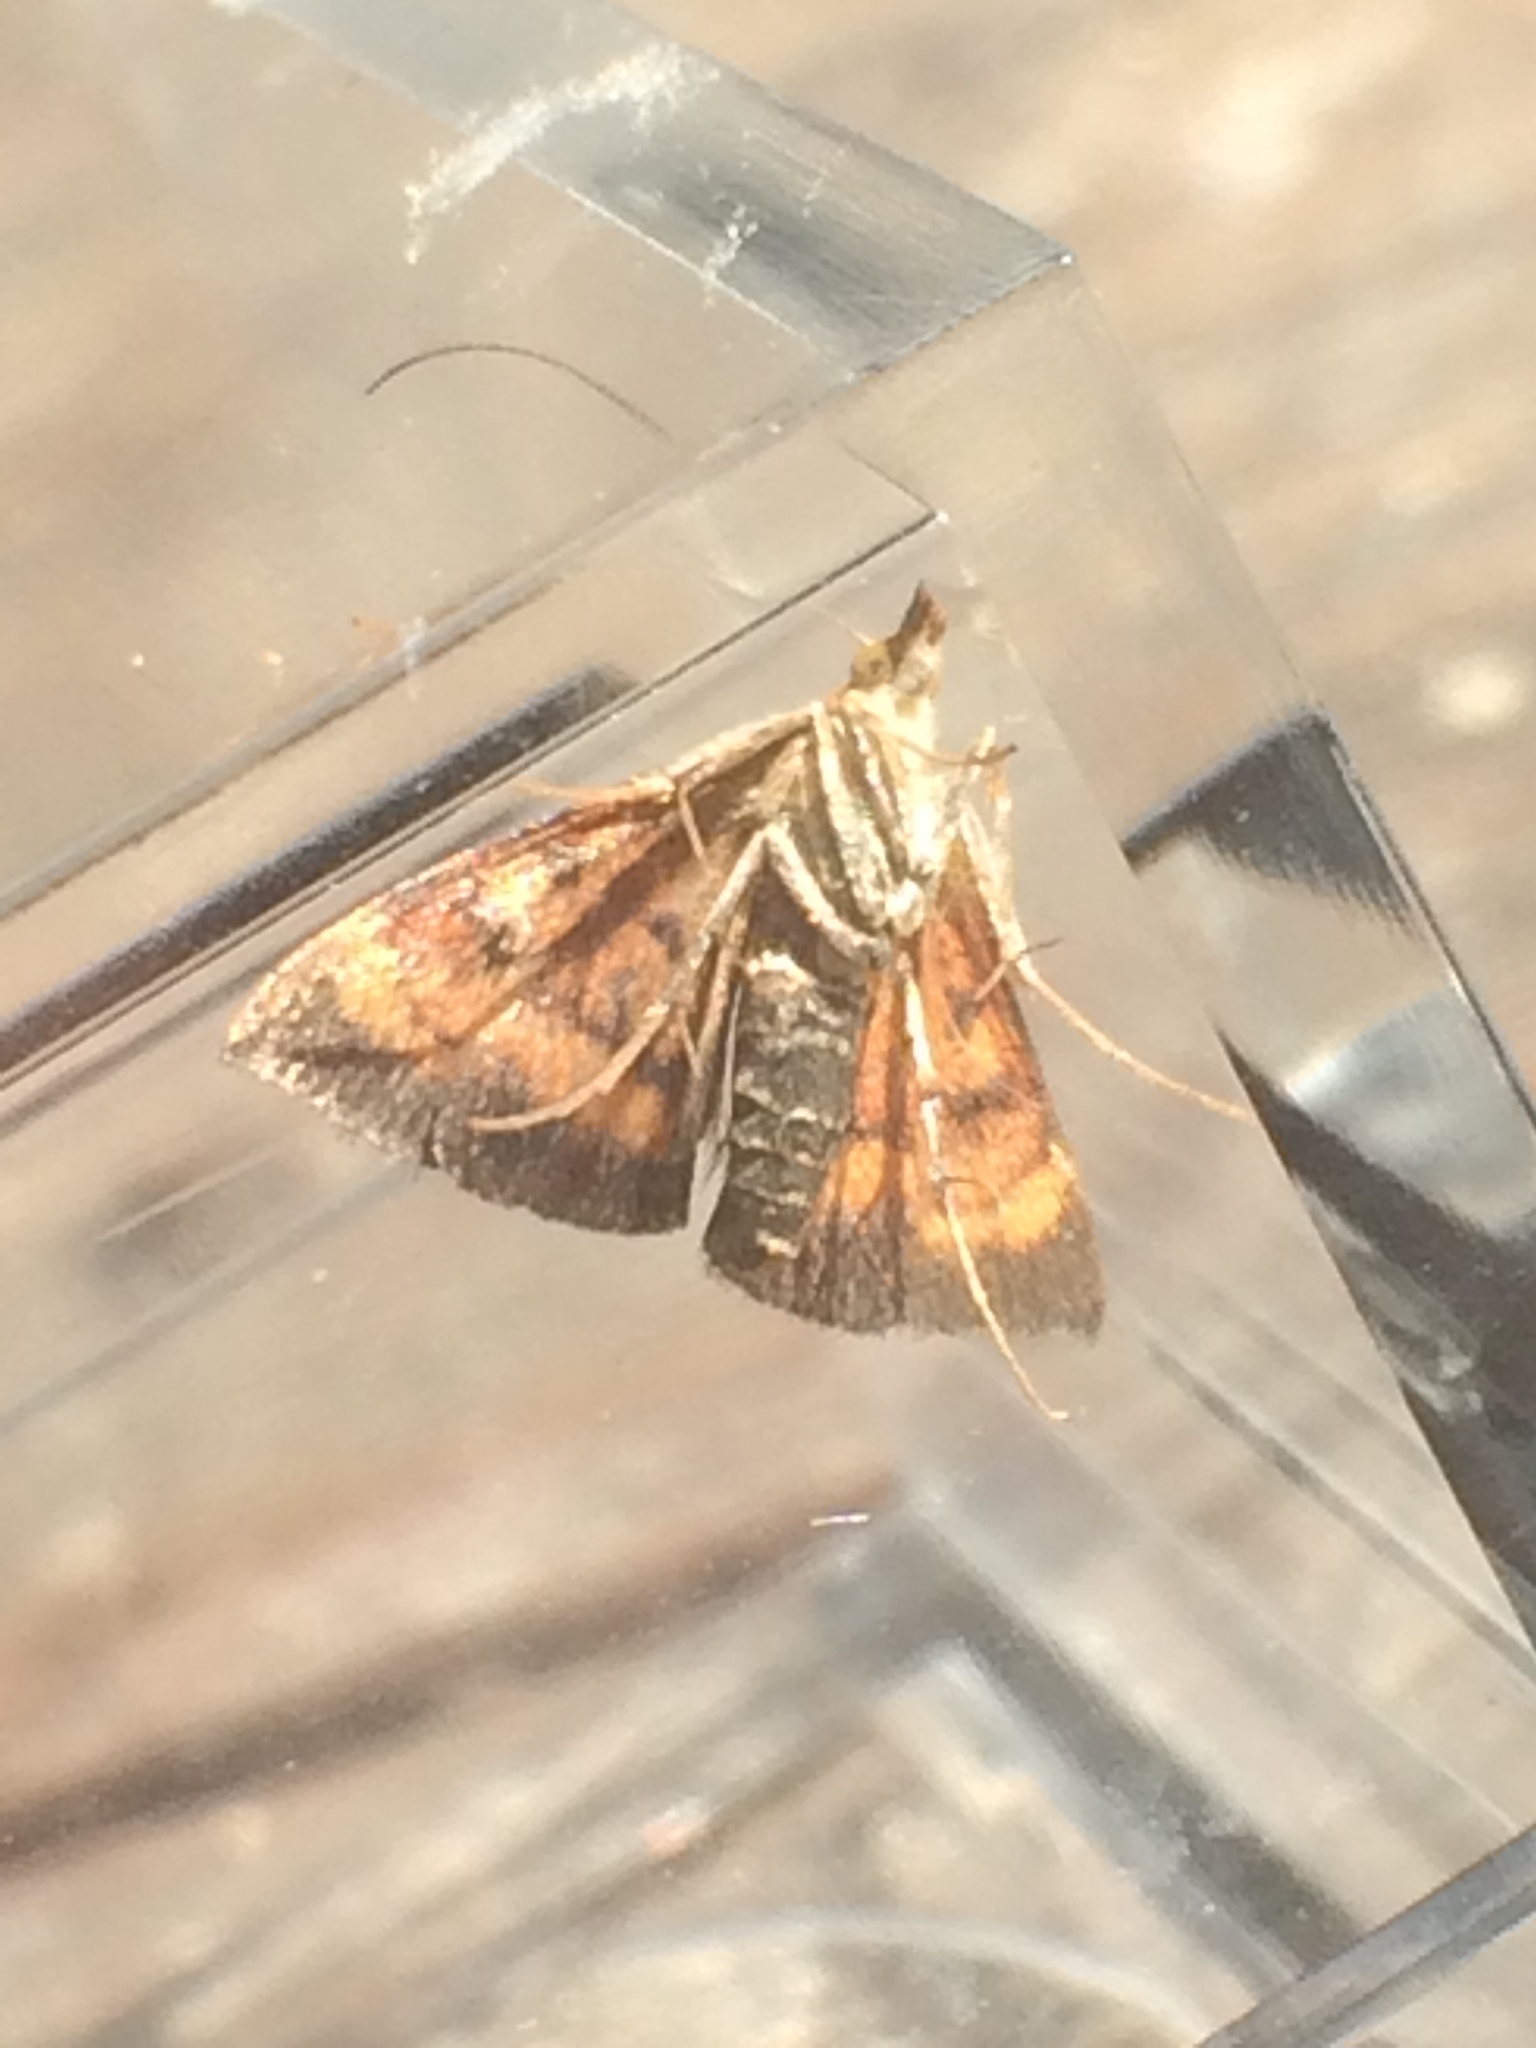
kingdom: Animalia
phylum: Arthropoda
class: Insecta
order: Lepidoptera
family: Crambidae
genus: Pyrausta
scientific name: Pyrausta californicalis
